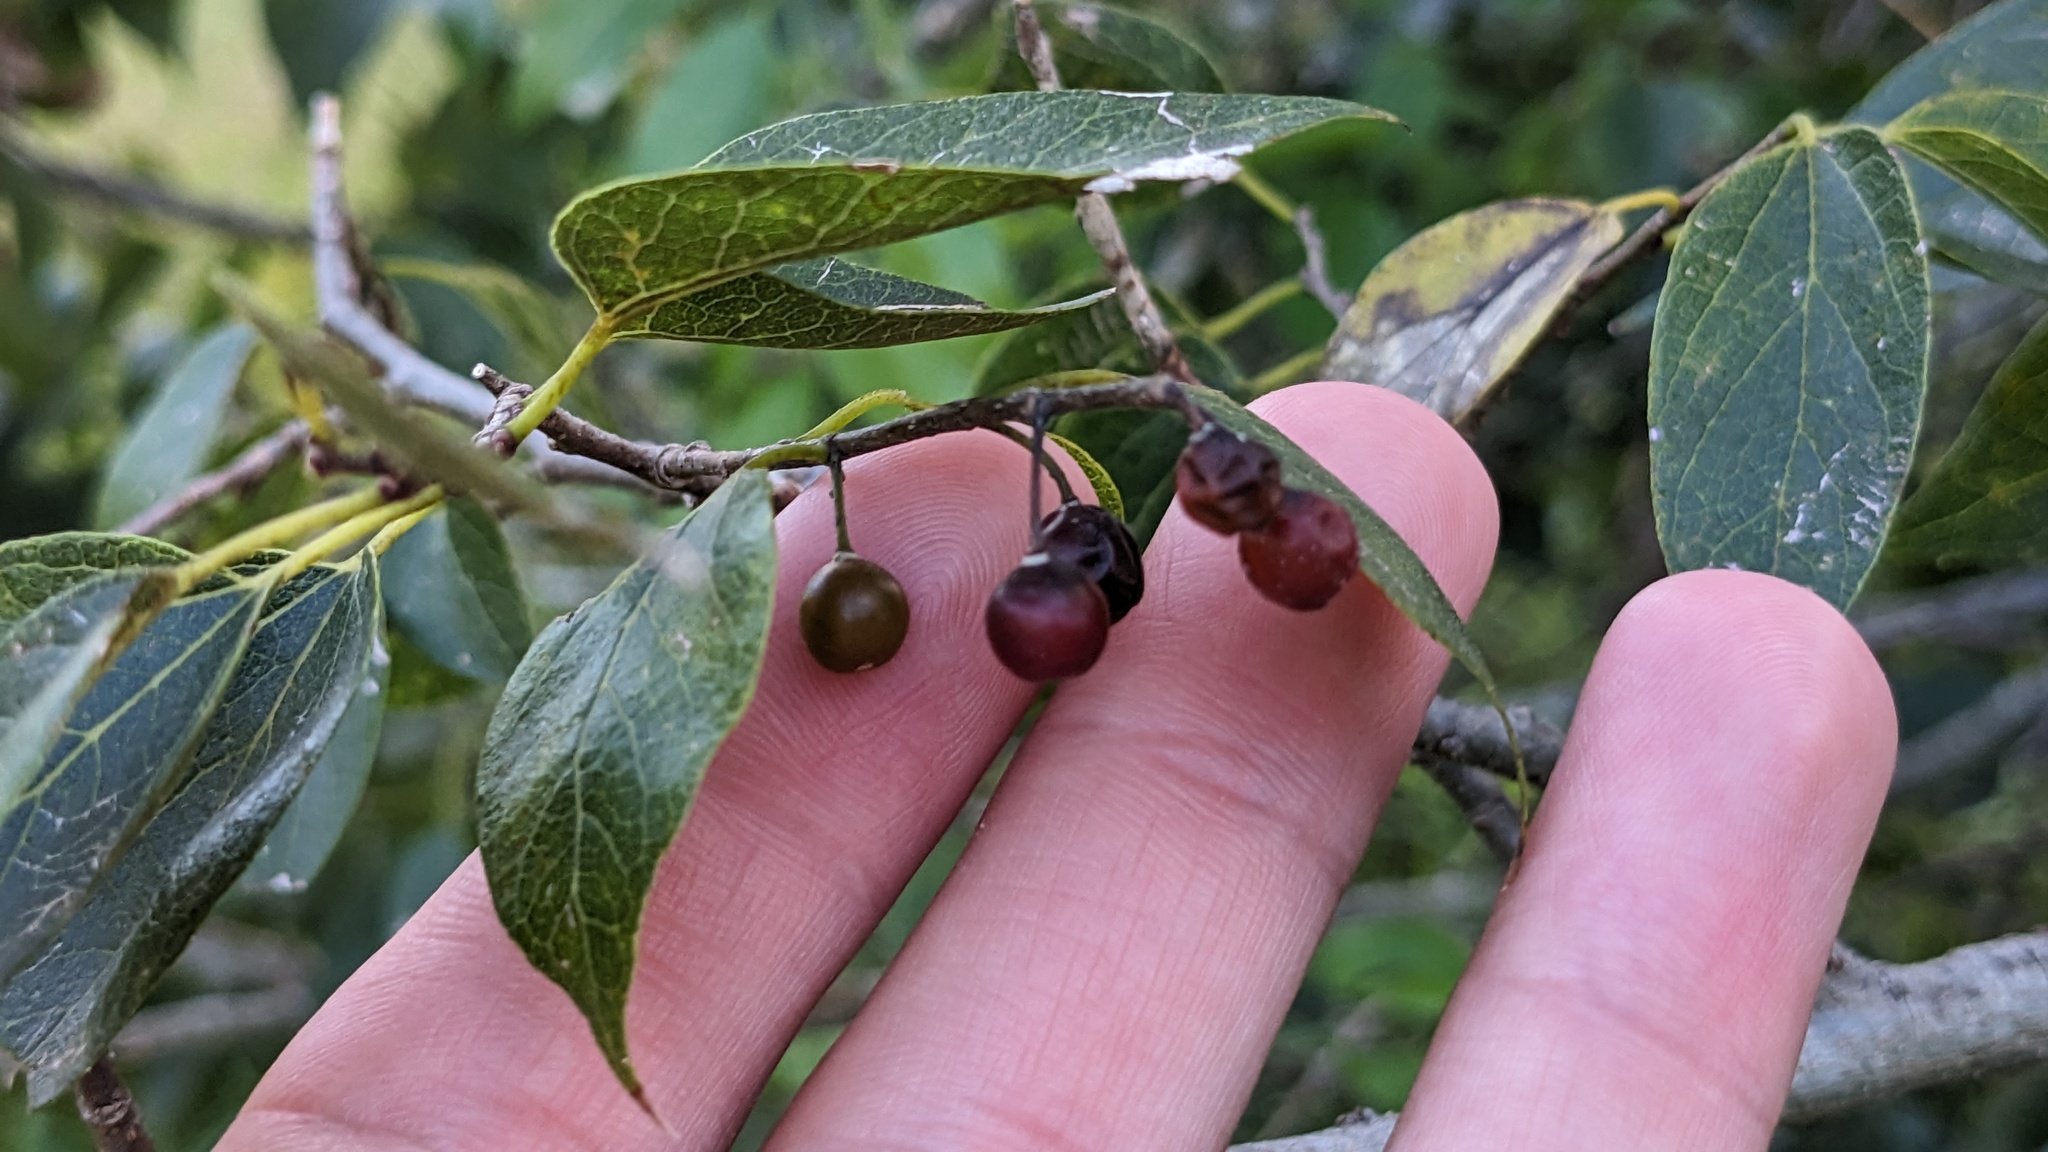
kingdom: Plantae
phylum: Tracheophyta
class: Magnoliopsida
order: Rosales
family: Cannabaceae
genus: Celtis
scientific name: Celtis laevigata
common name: Sugarberry
